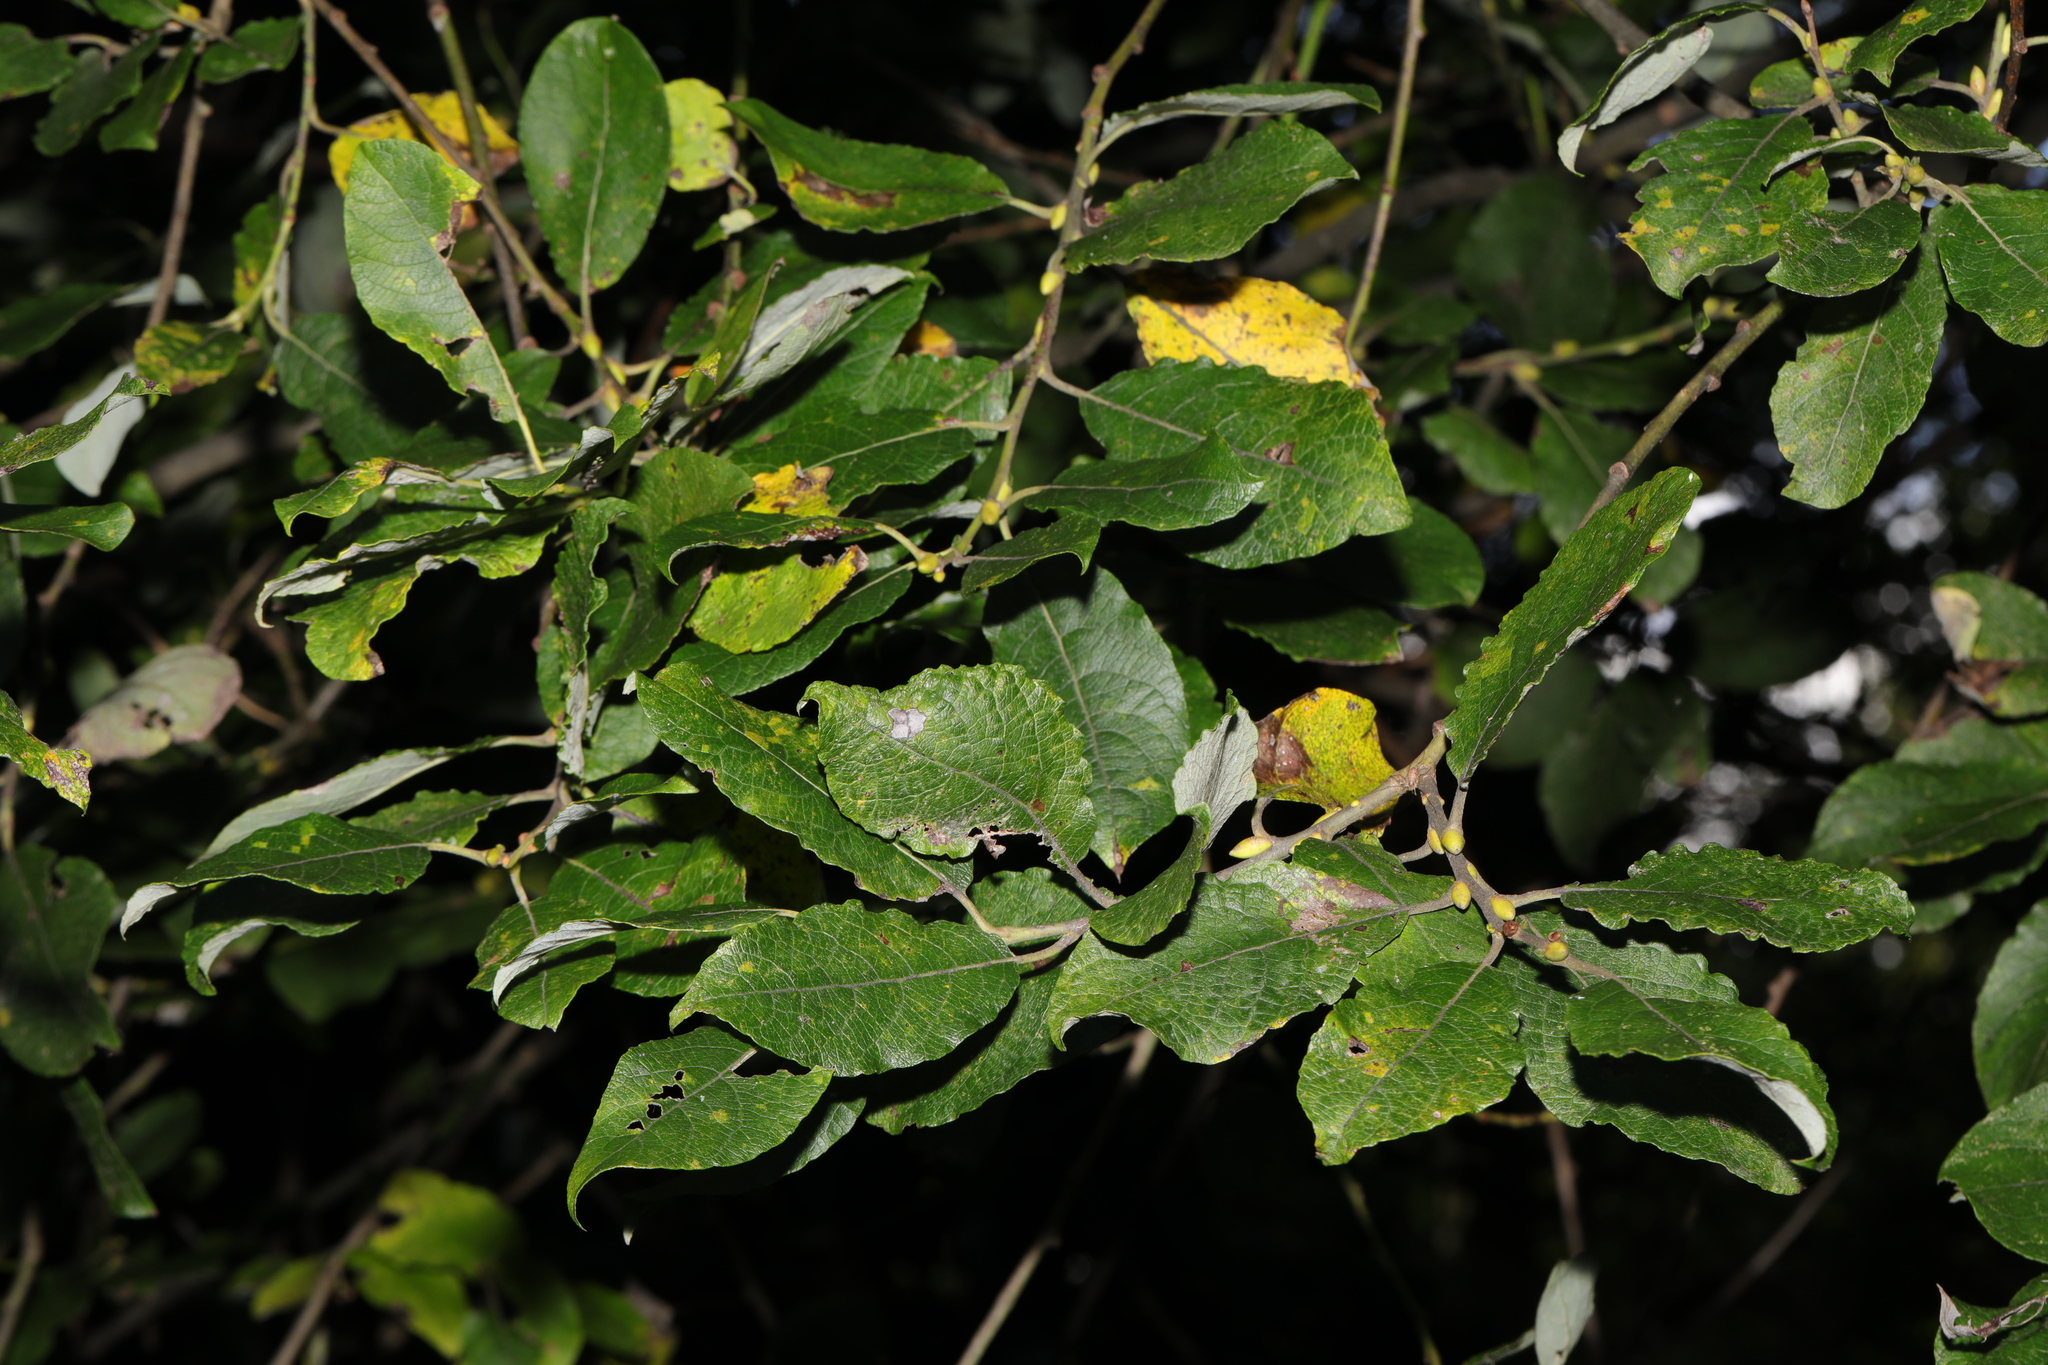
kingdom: Plantae
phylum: Tracheophyta
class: Magnoliopsida
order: Malpighiales
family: Salicaceae
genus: Salix
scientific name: Salix caprea
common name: Goat willow
